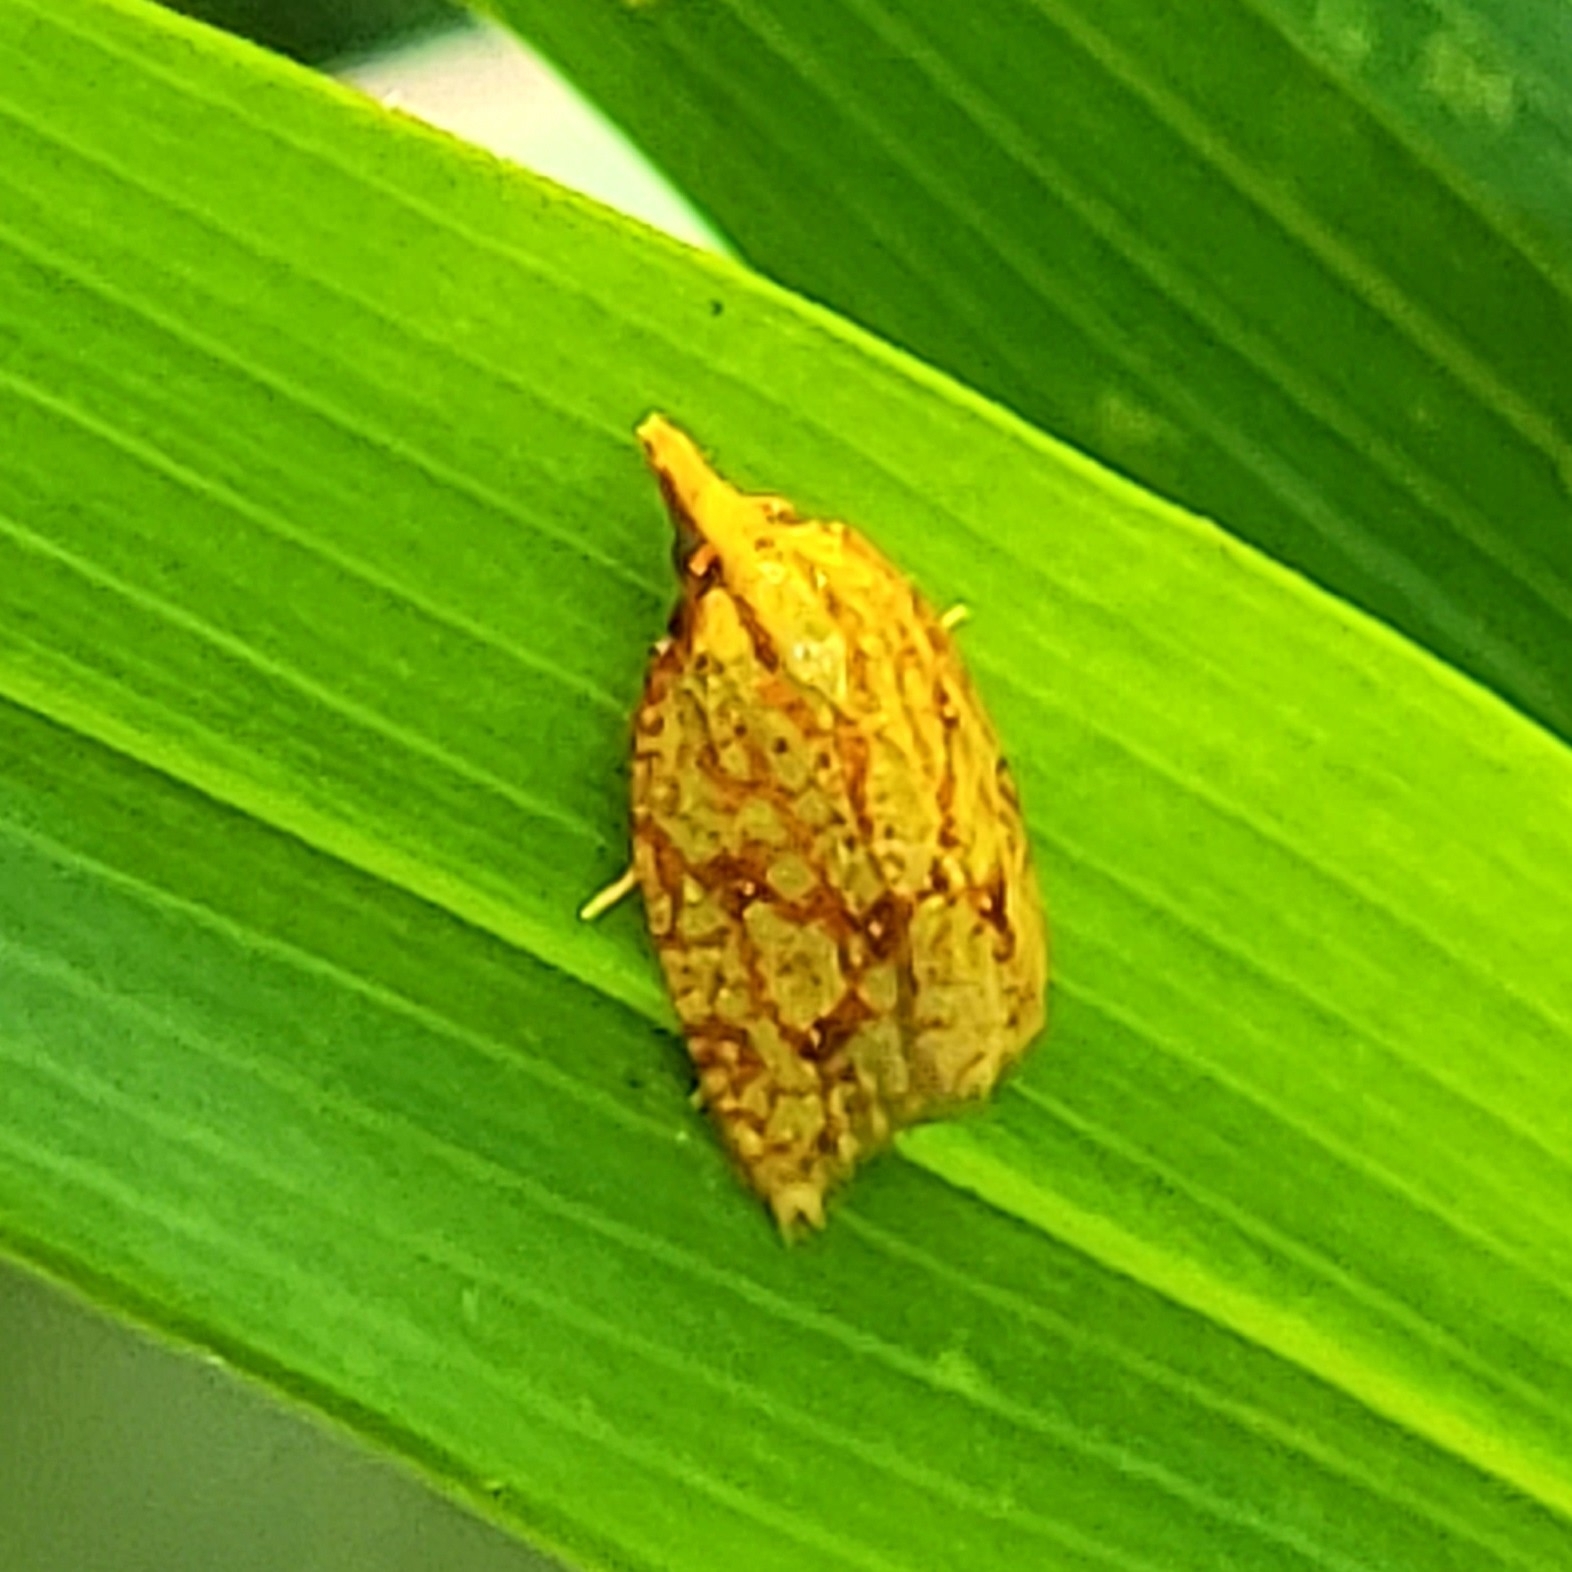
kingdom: Animalia
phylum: Arthropoda
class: Insecta
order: Lepidoptera
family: Tortricidae
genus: Sparganothis
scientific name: Sparganothis sulfureana
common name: Sparganothis fruitworm moth
